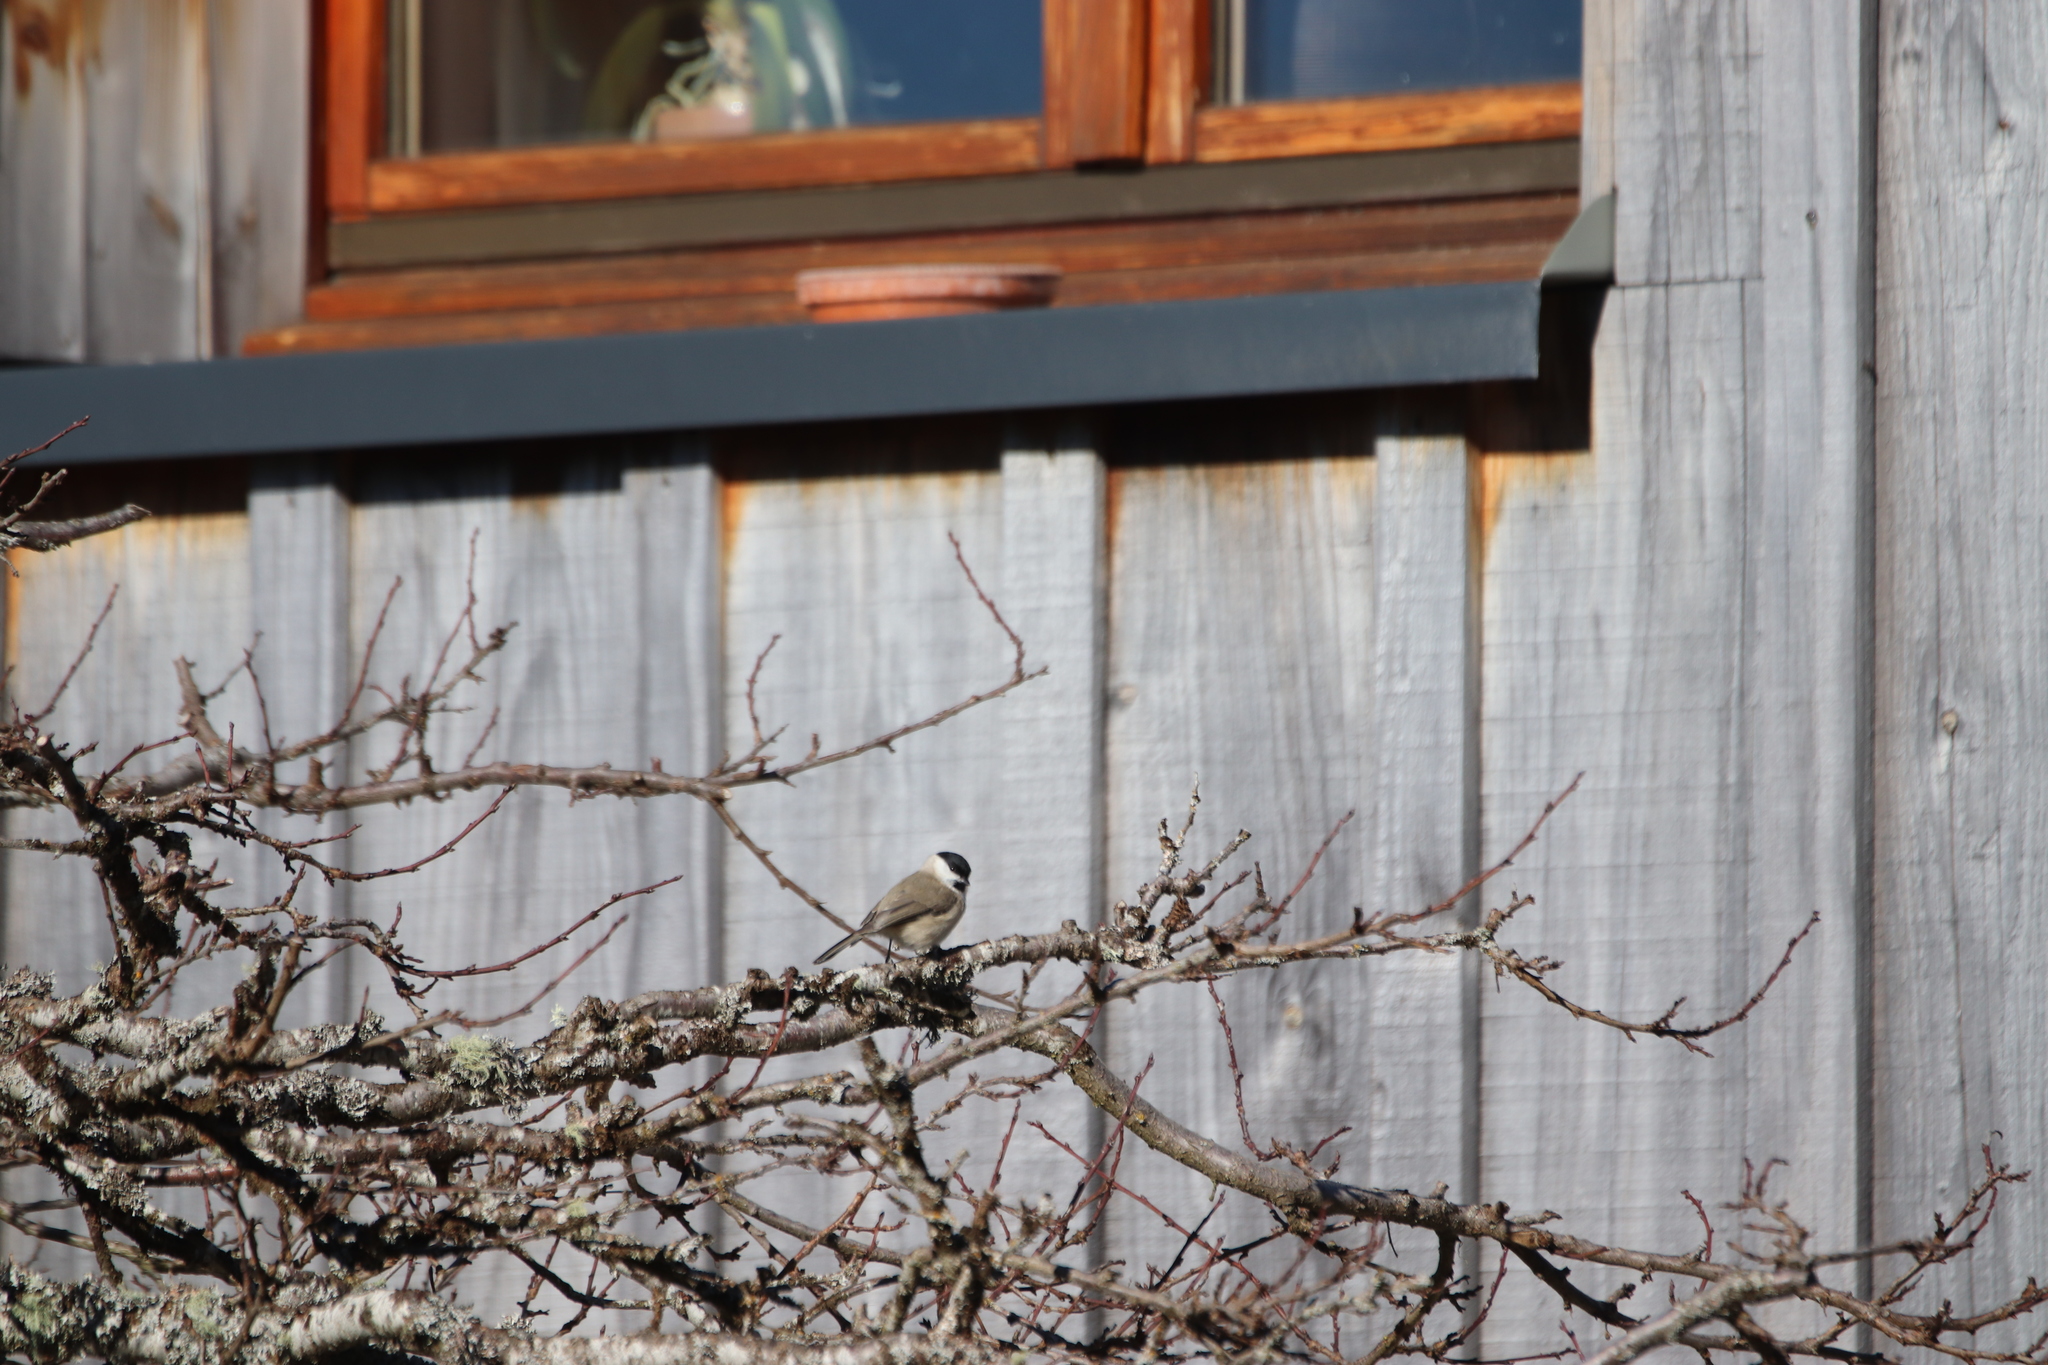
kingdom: Animalia
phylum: Chordata
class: Aves
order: Passeriformes
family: Paridae
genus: Poecile
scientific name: Poecile palustris
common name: Marsh tit
